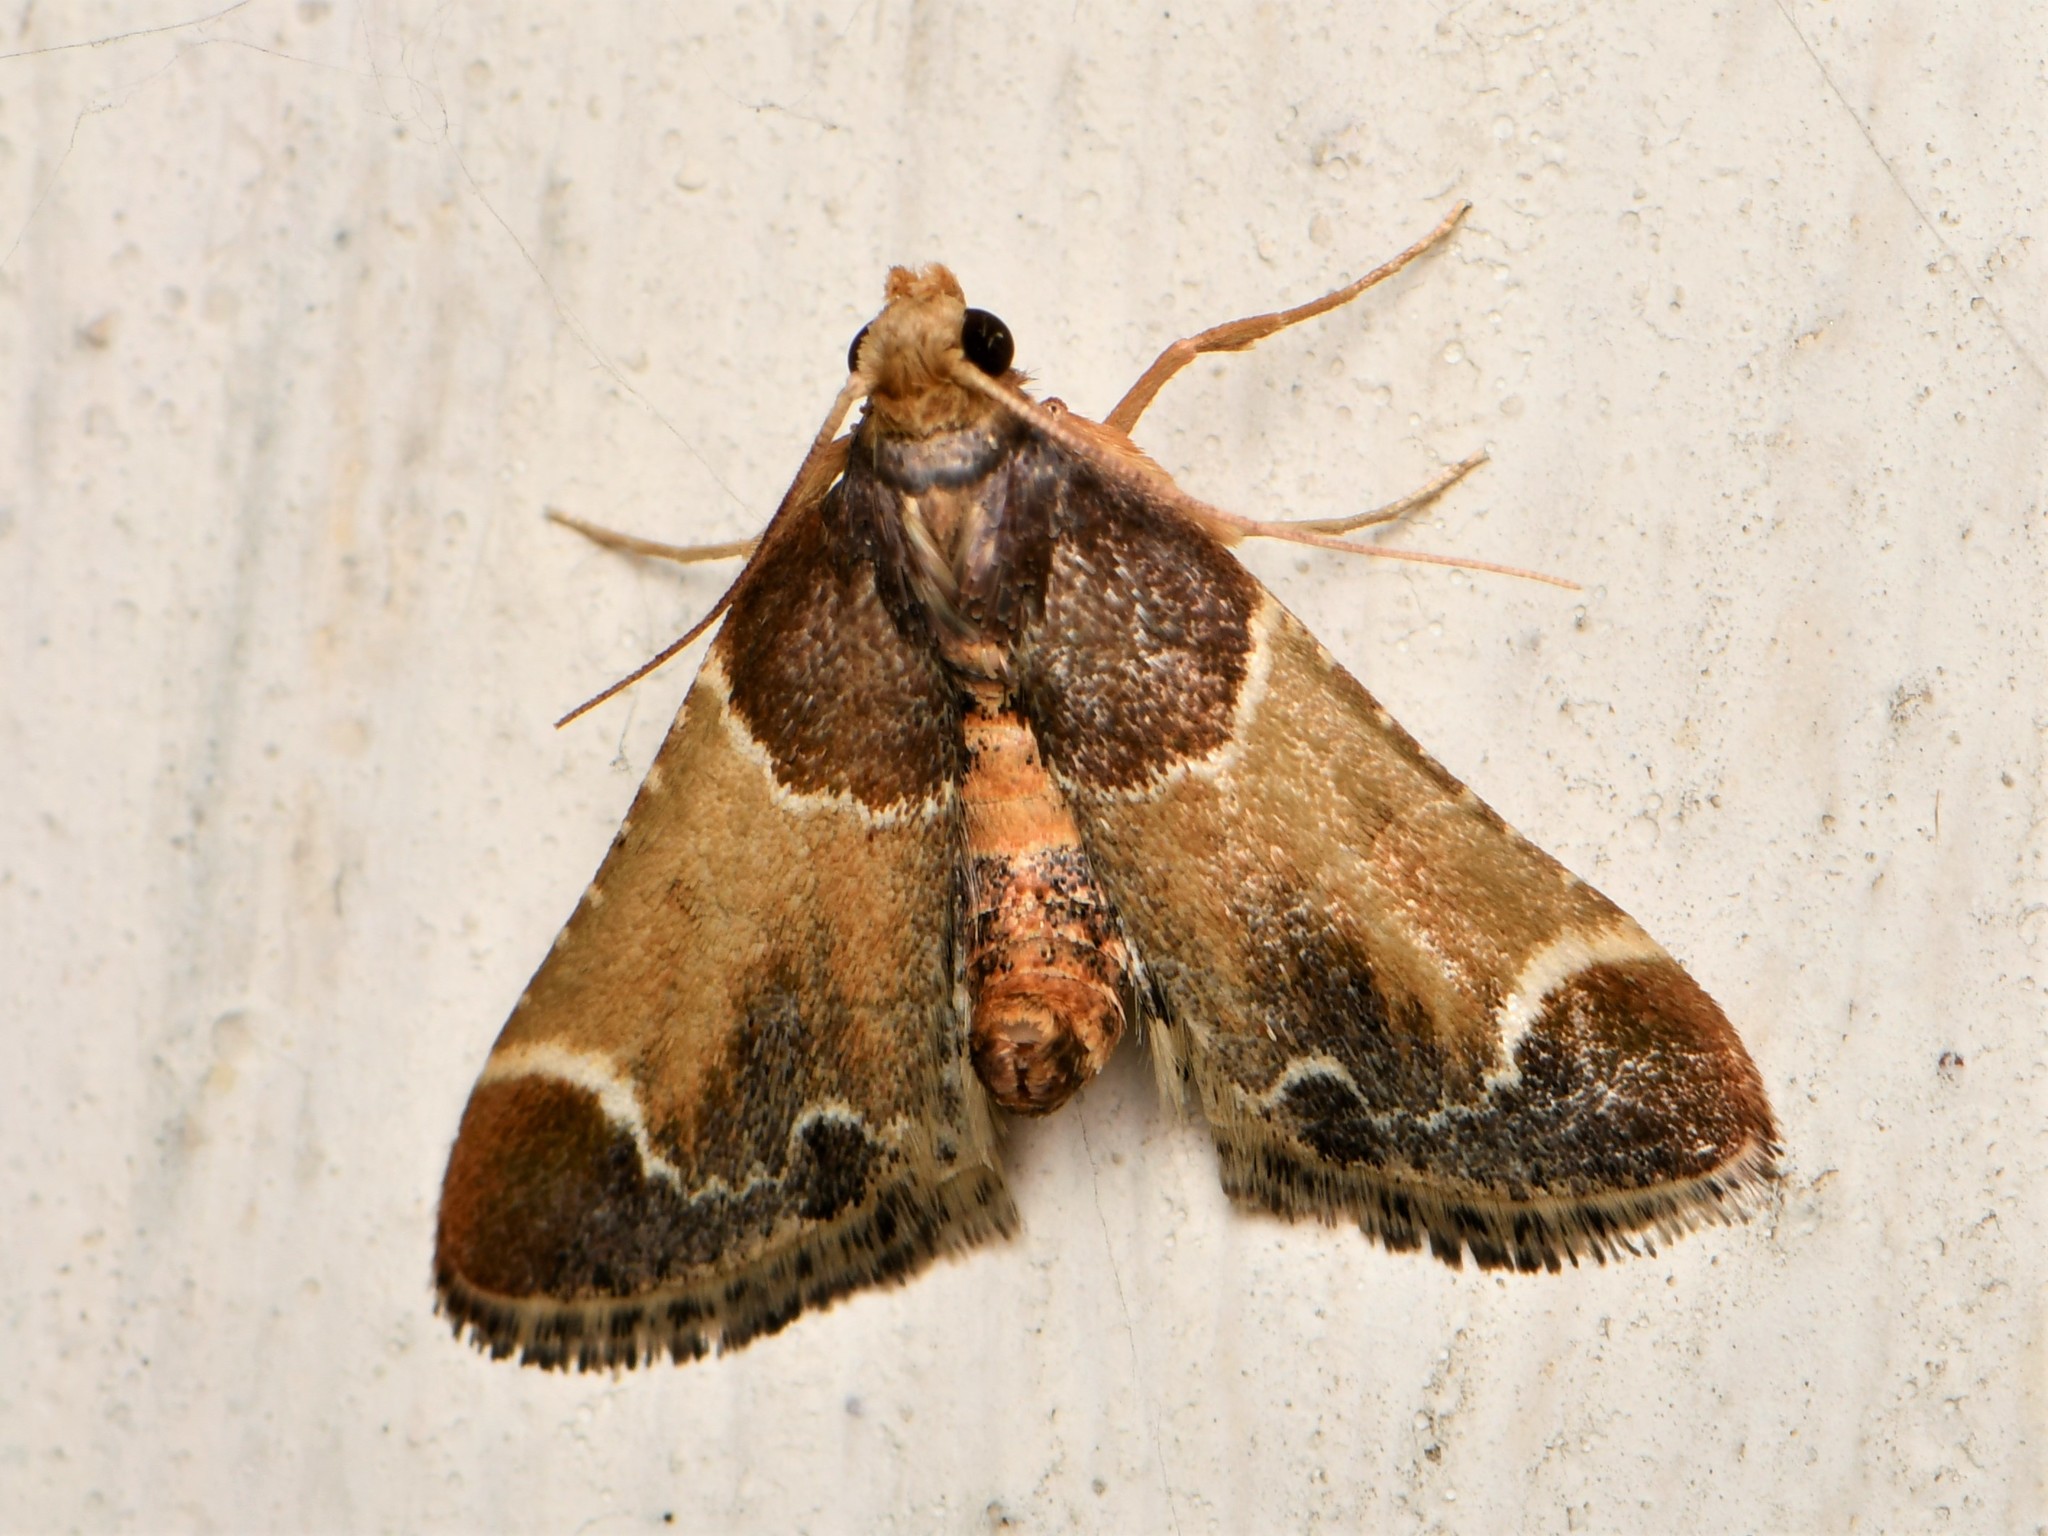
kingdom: Animalia
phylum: Arthropoda
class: Insecta
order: Lepidoptera
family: Pyralidae
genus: Pyralis
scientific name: Pyralis farinalis
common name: Meal moth
